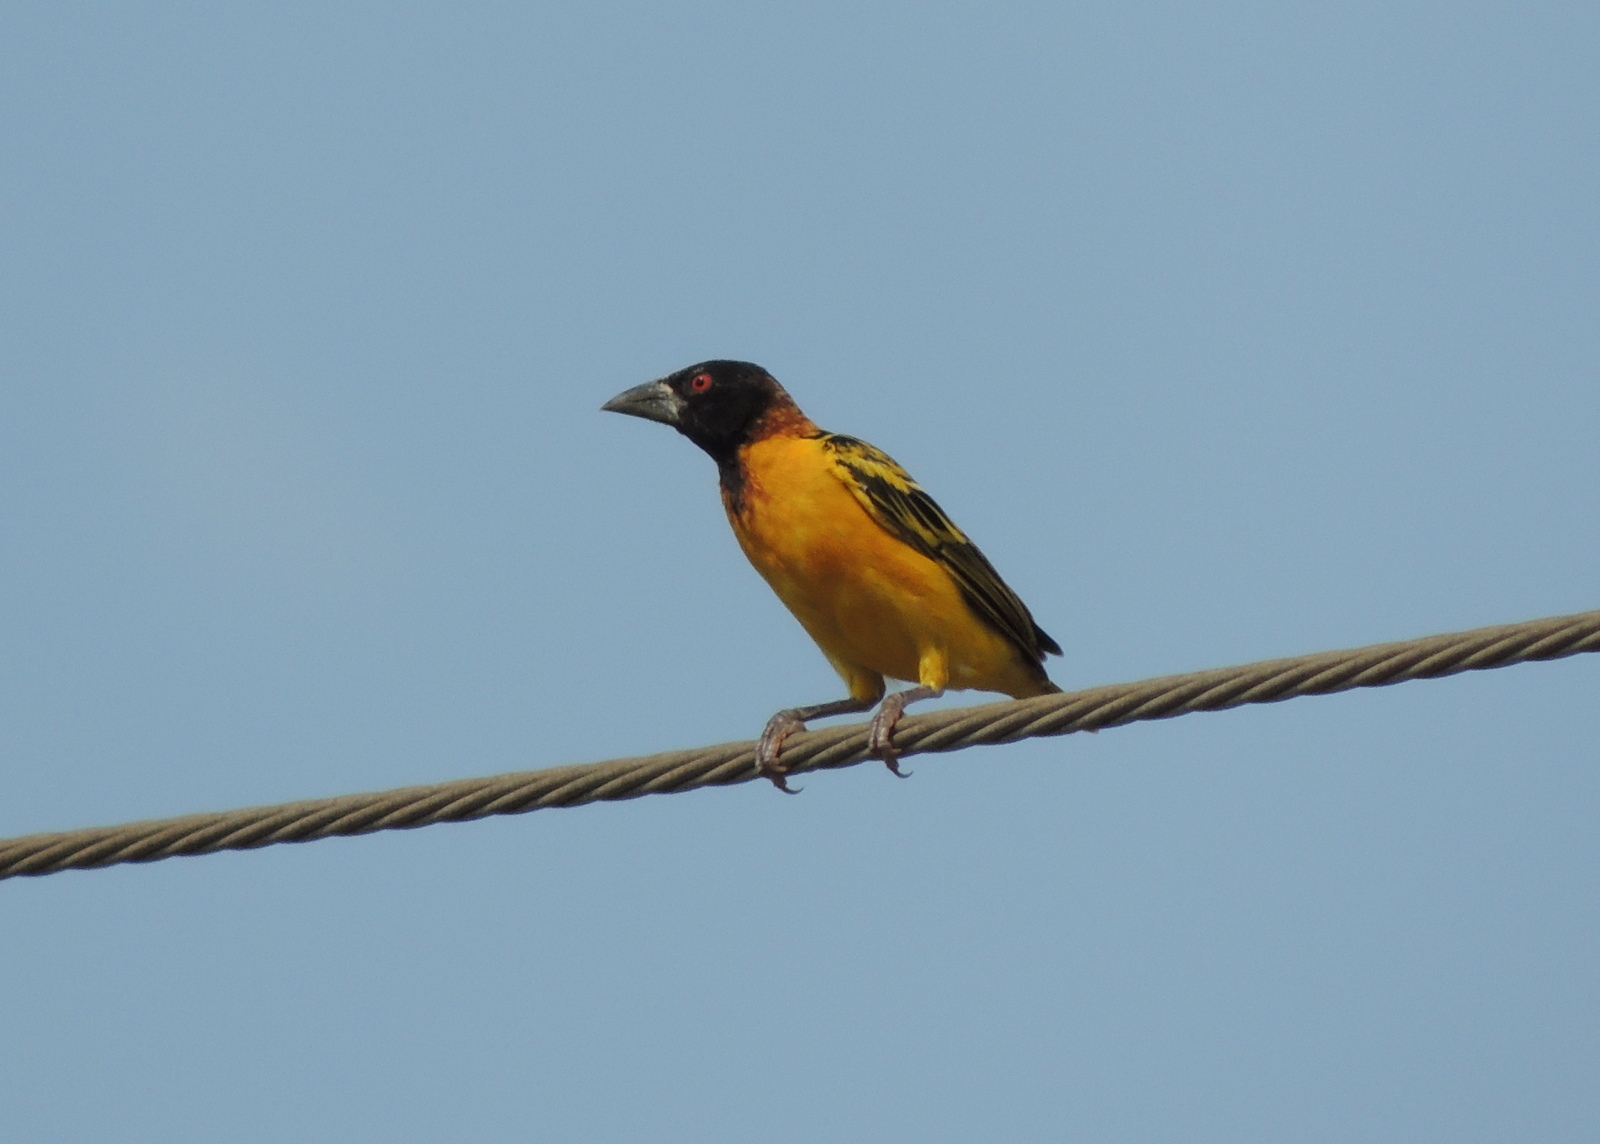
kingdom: Animalia
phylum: Chordata
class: Aves
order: Passeriformes
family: Ploceidae
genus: Ploceus
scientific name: Ploceus cucullatus
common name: Village weaver
